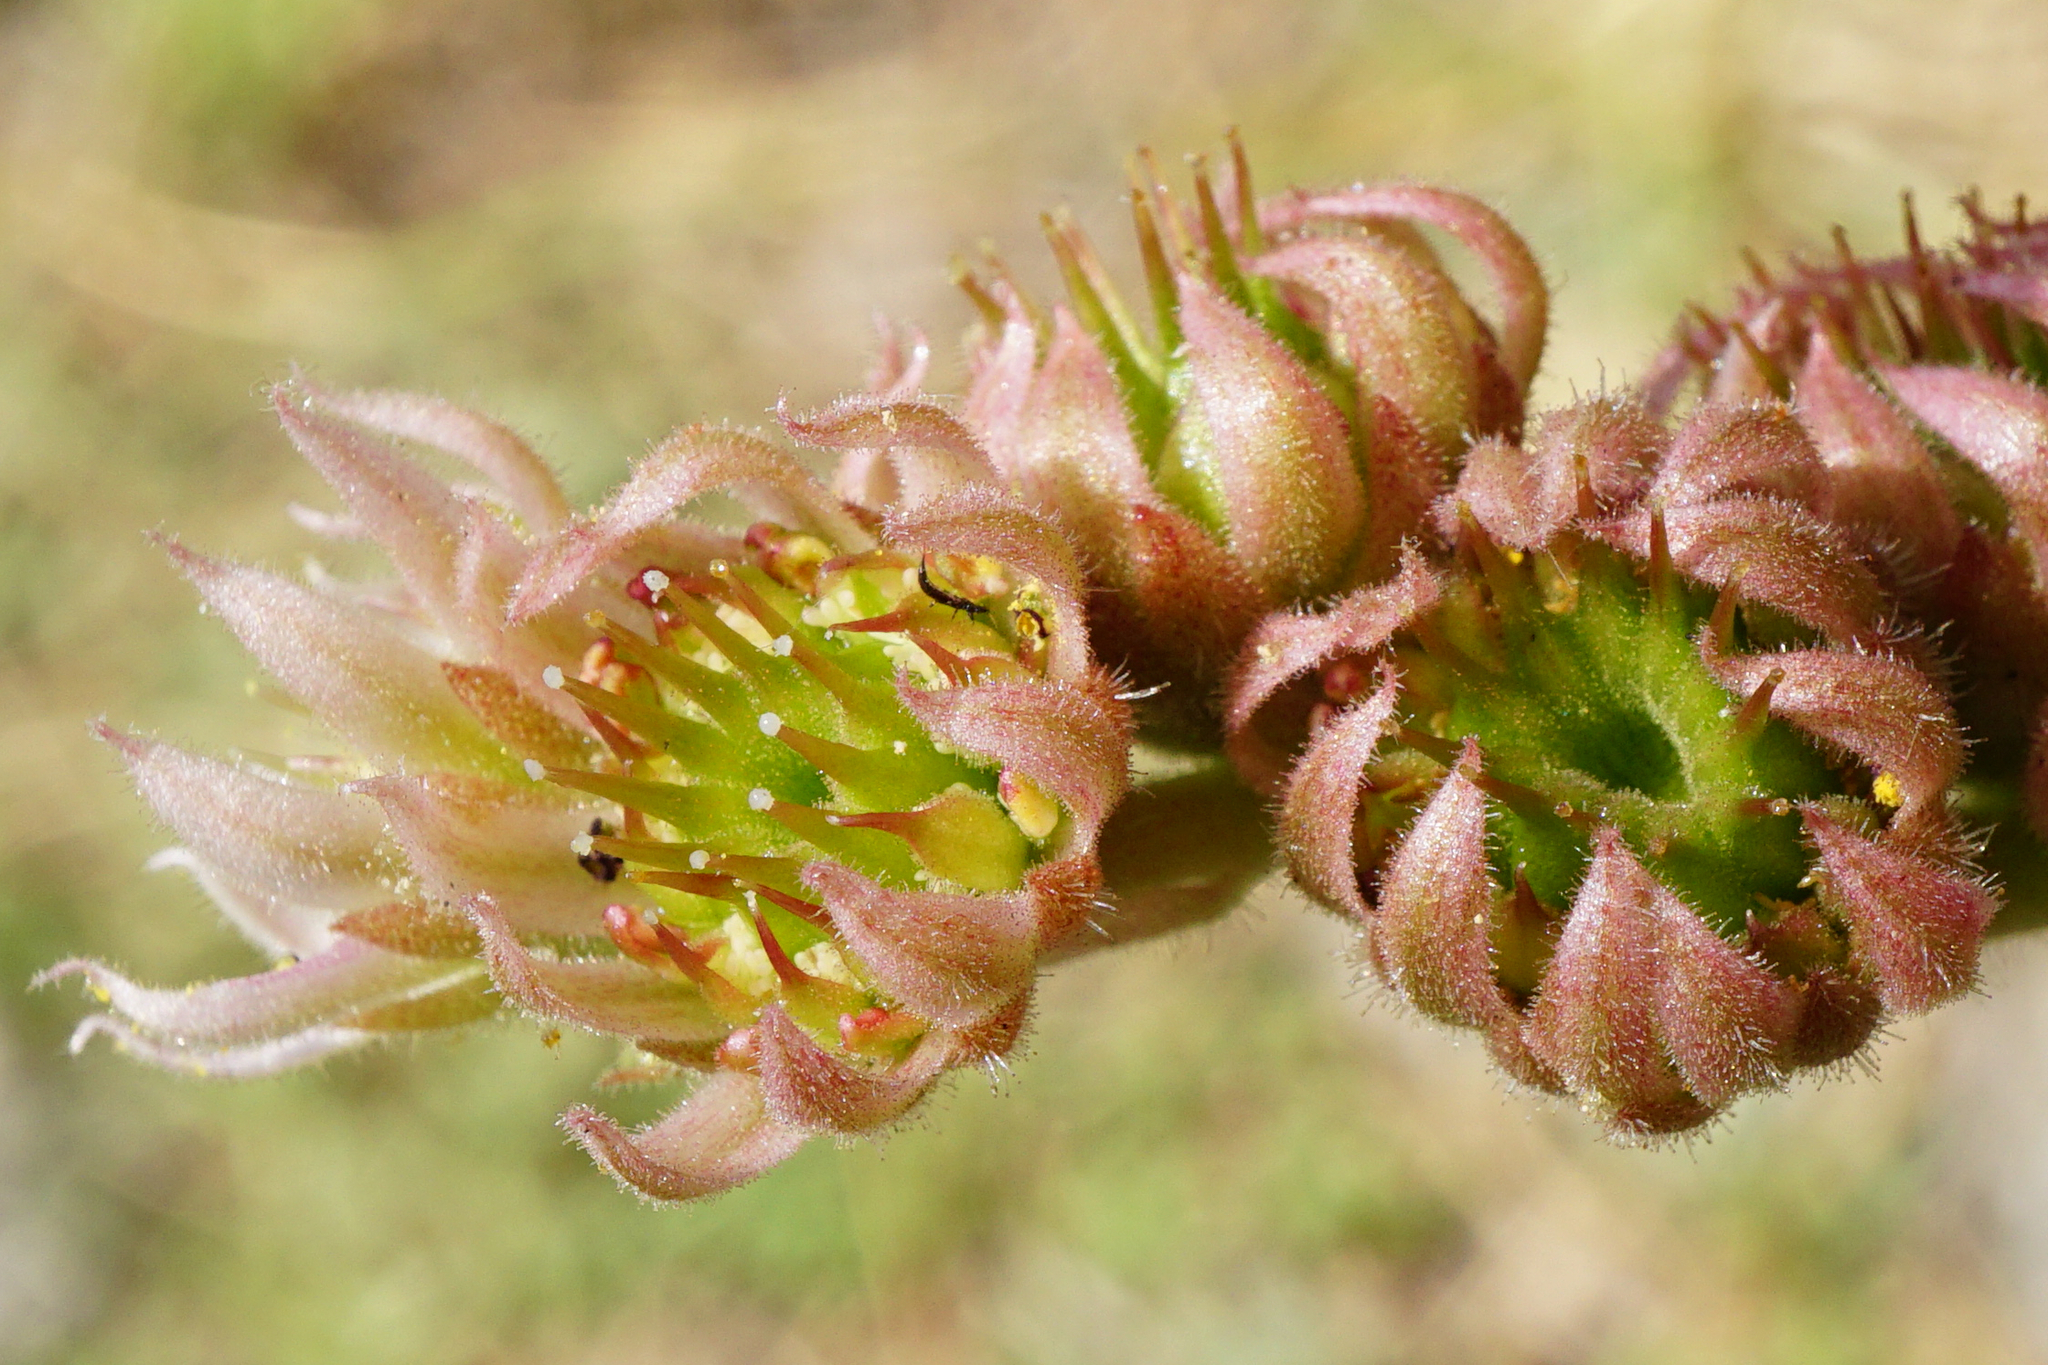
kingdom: Plantae
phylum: Tracheophyta
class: Magnoliopsida
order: Saxifragales
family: Crassulaceae
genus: Sempervivum
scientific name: Sempervivum tectorum
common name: House-leek
